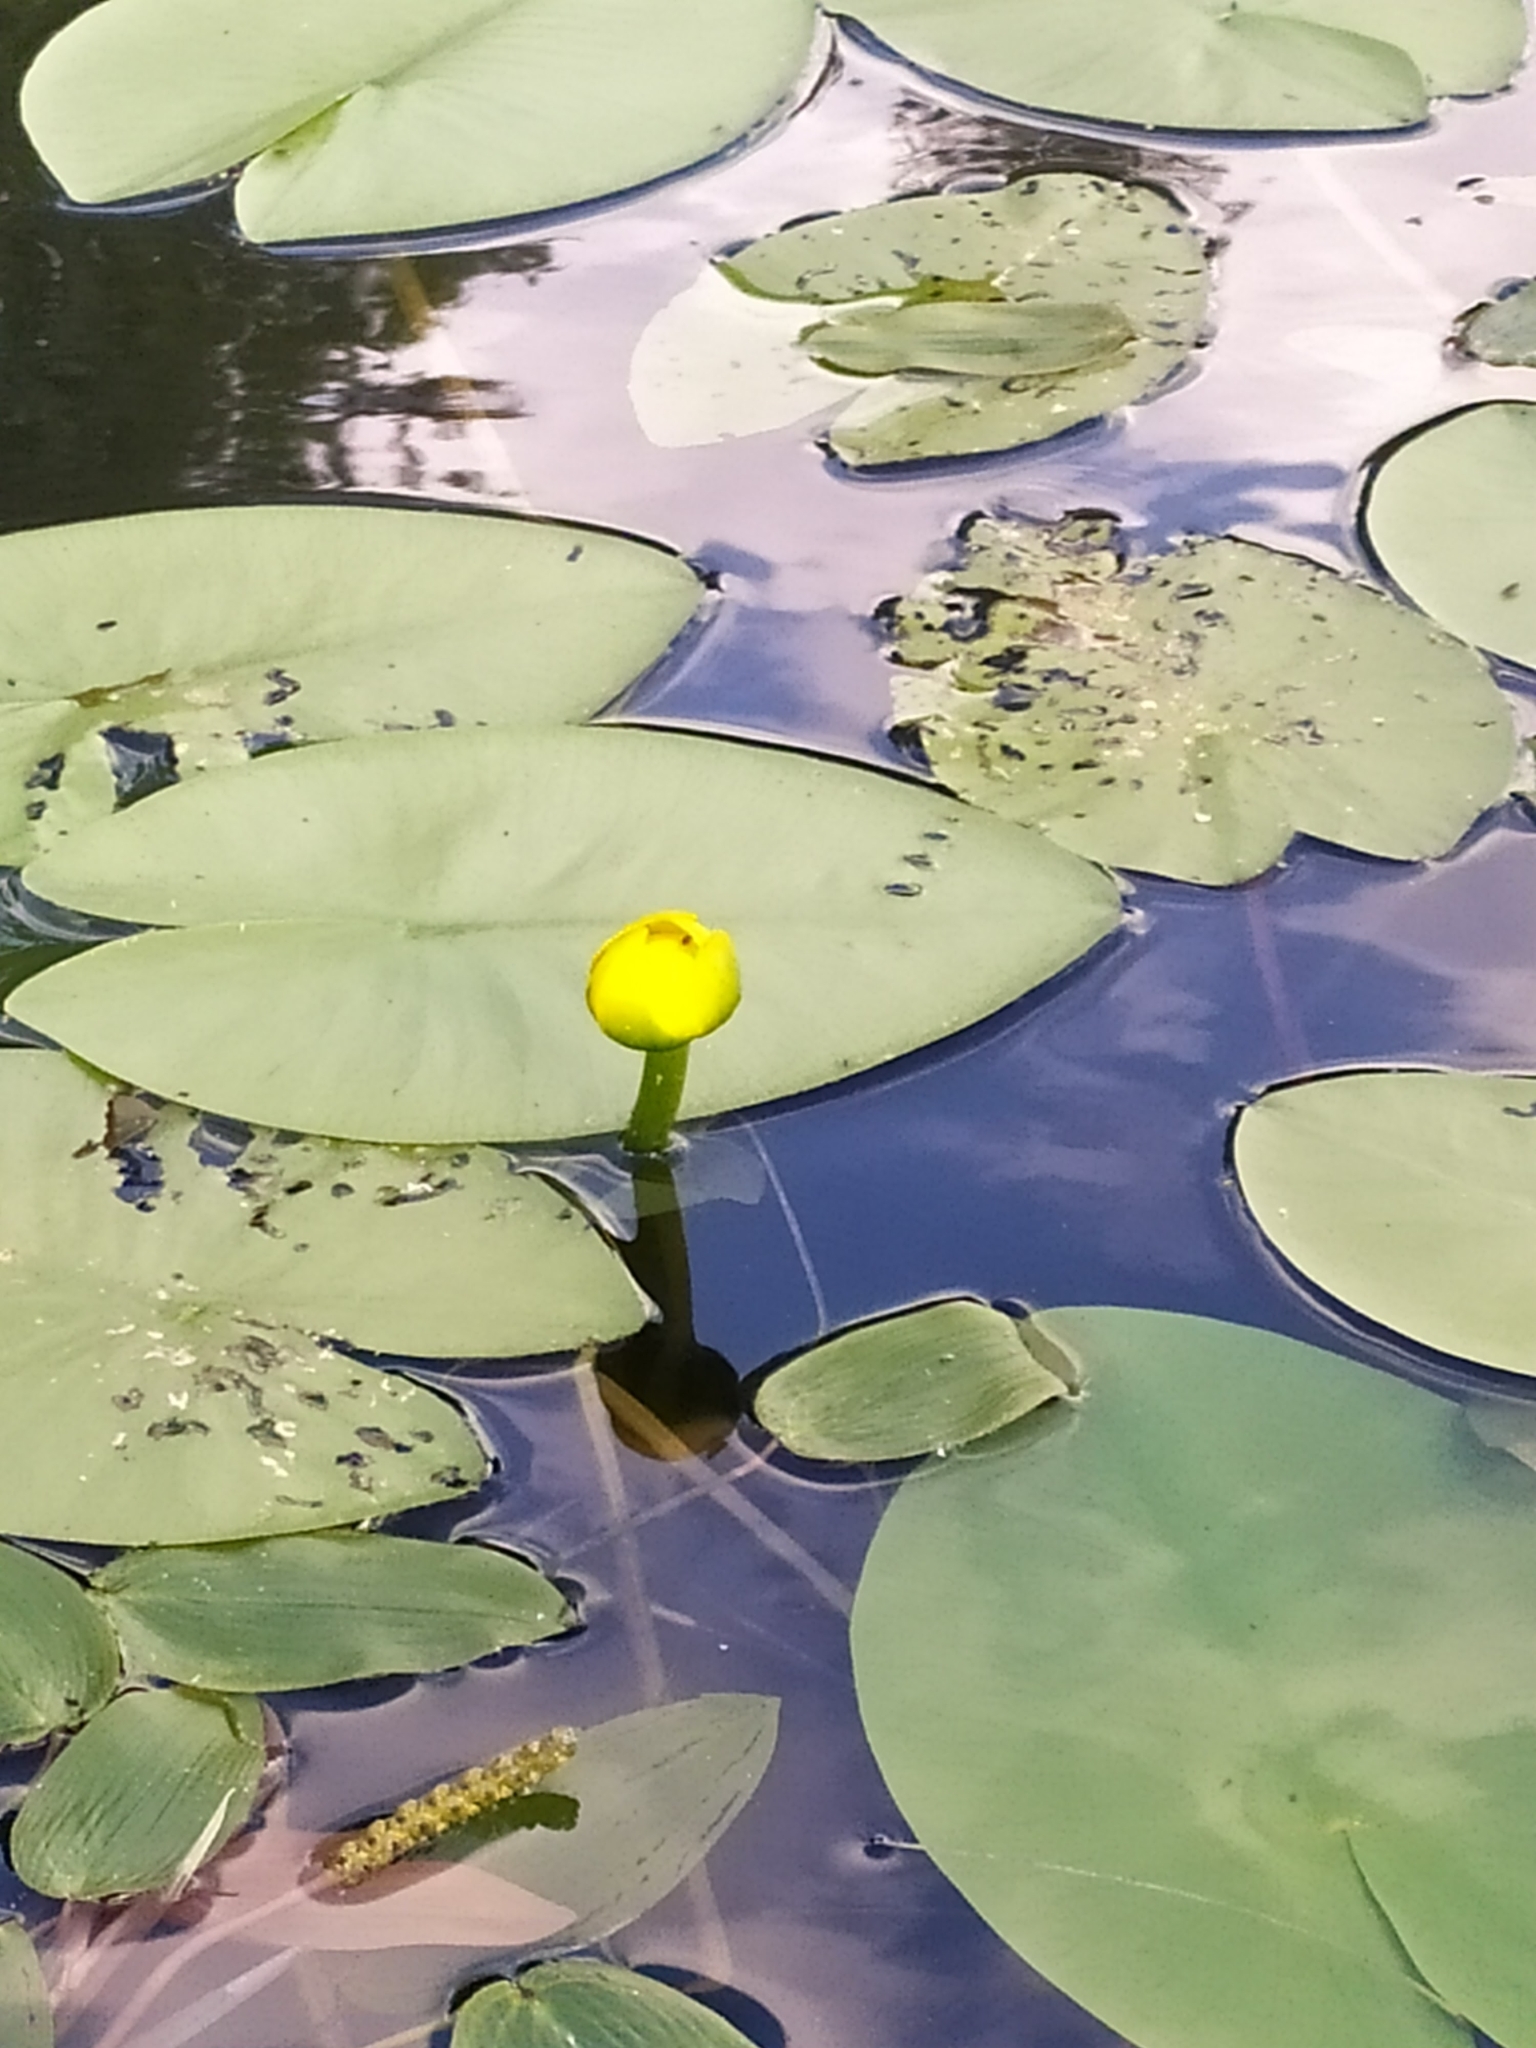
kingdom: Plantae
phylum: Tracheophyta
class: Magnoliopsida
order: Nymphaeales
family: Nymphaeaceae
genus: Nuphar
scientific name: Nuphar lutea
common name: Yellow water-lily
